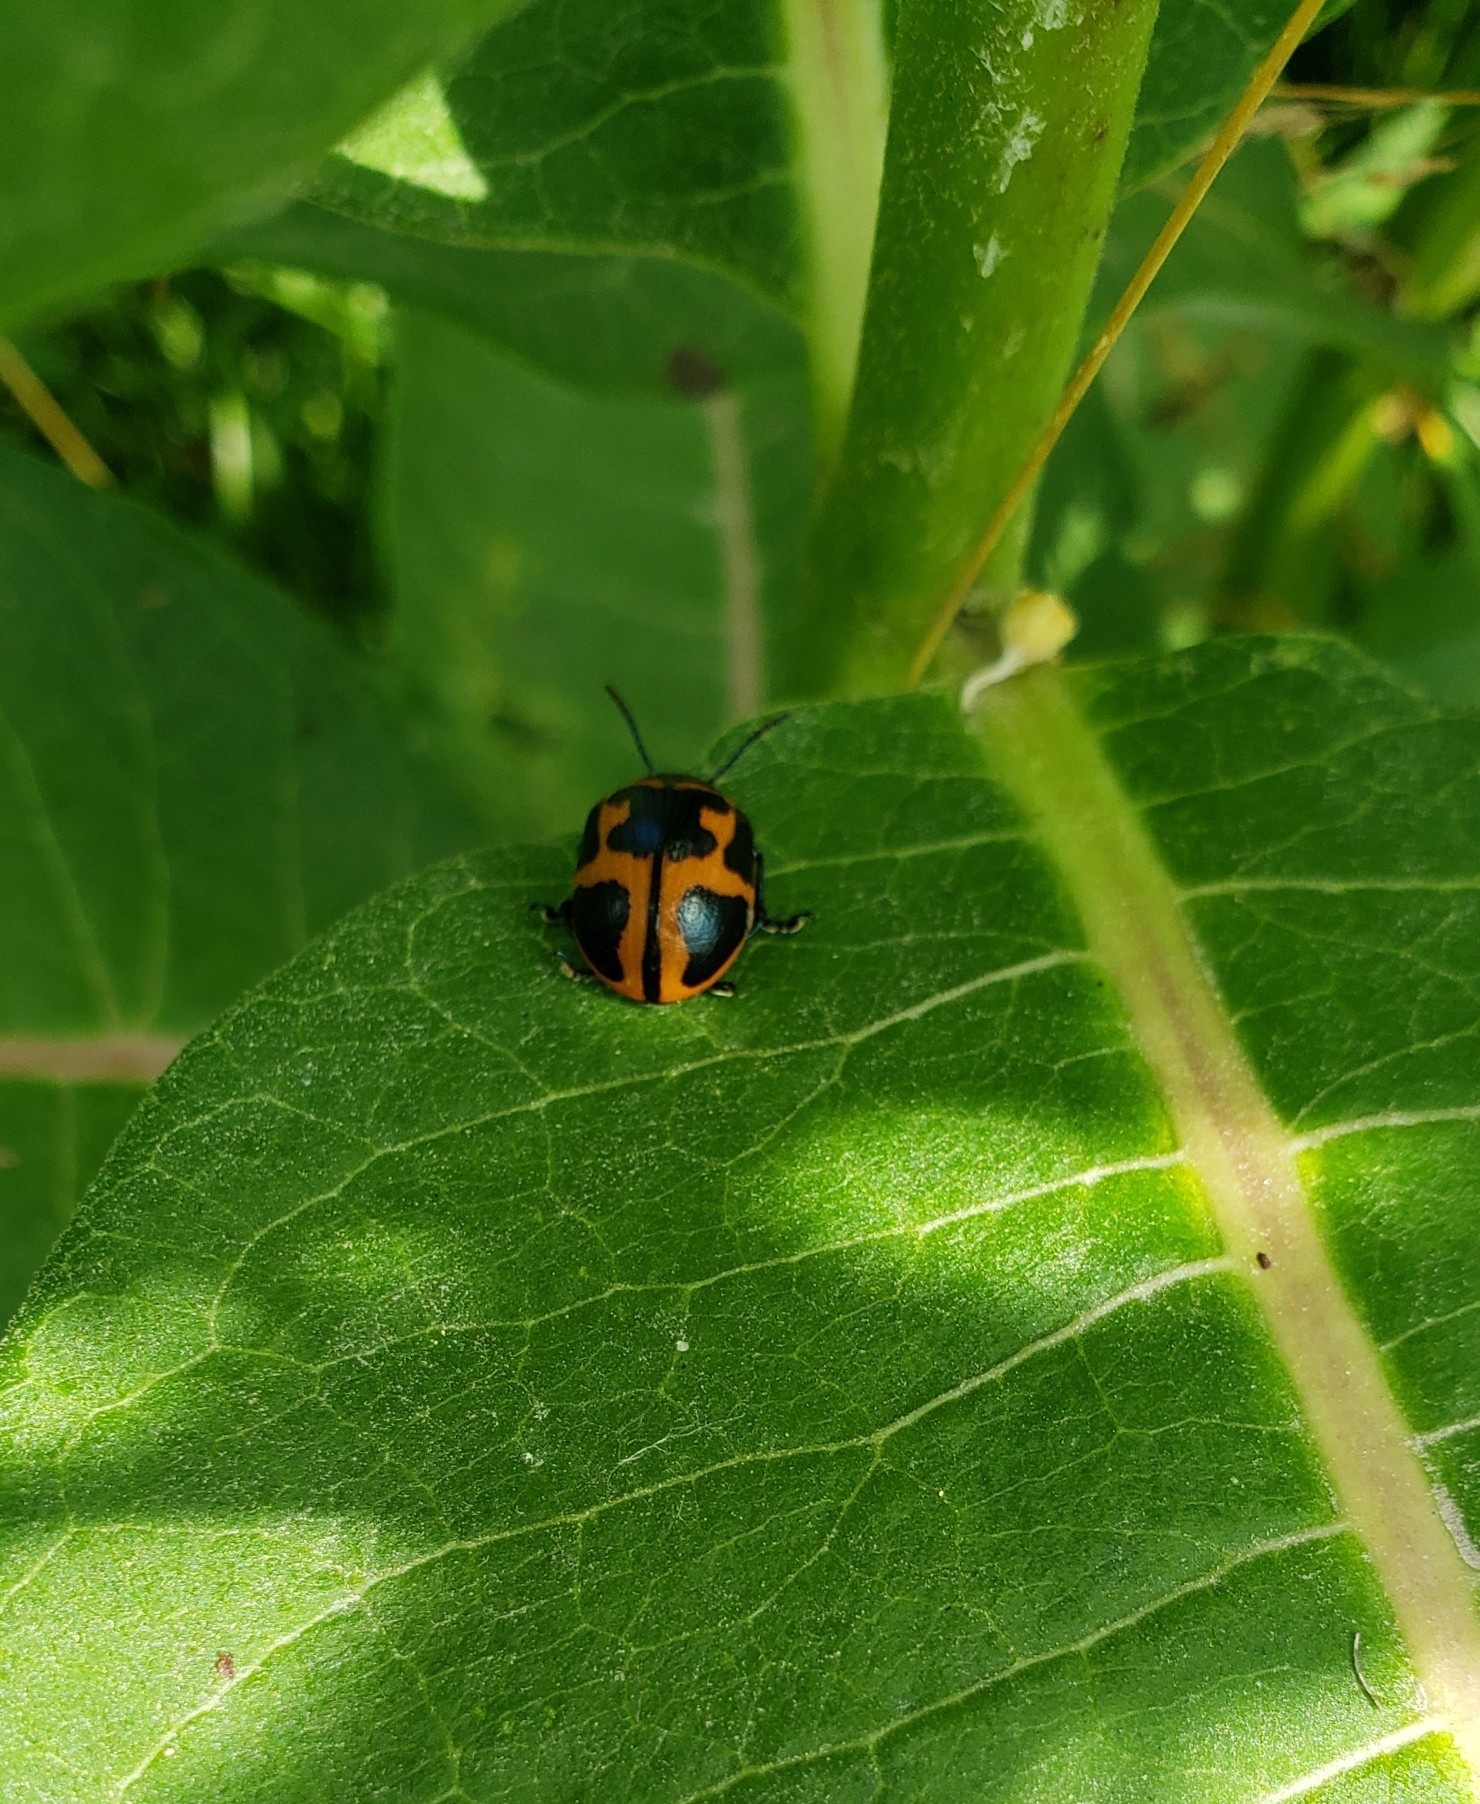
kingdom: Animalia
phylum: Arthropoda
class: Insecta
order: Coleoptera
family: Chrysomelidae
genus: Labidomera
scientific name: Labidomera clivicollis
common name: Swamp milkweed leaf beetle
